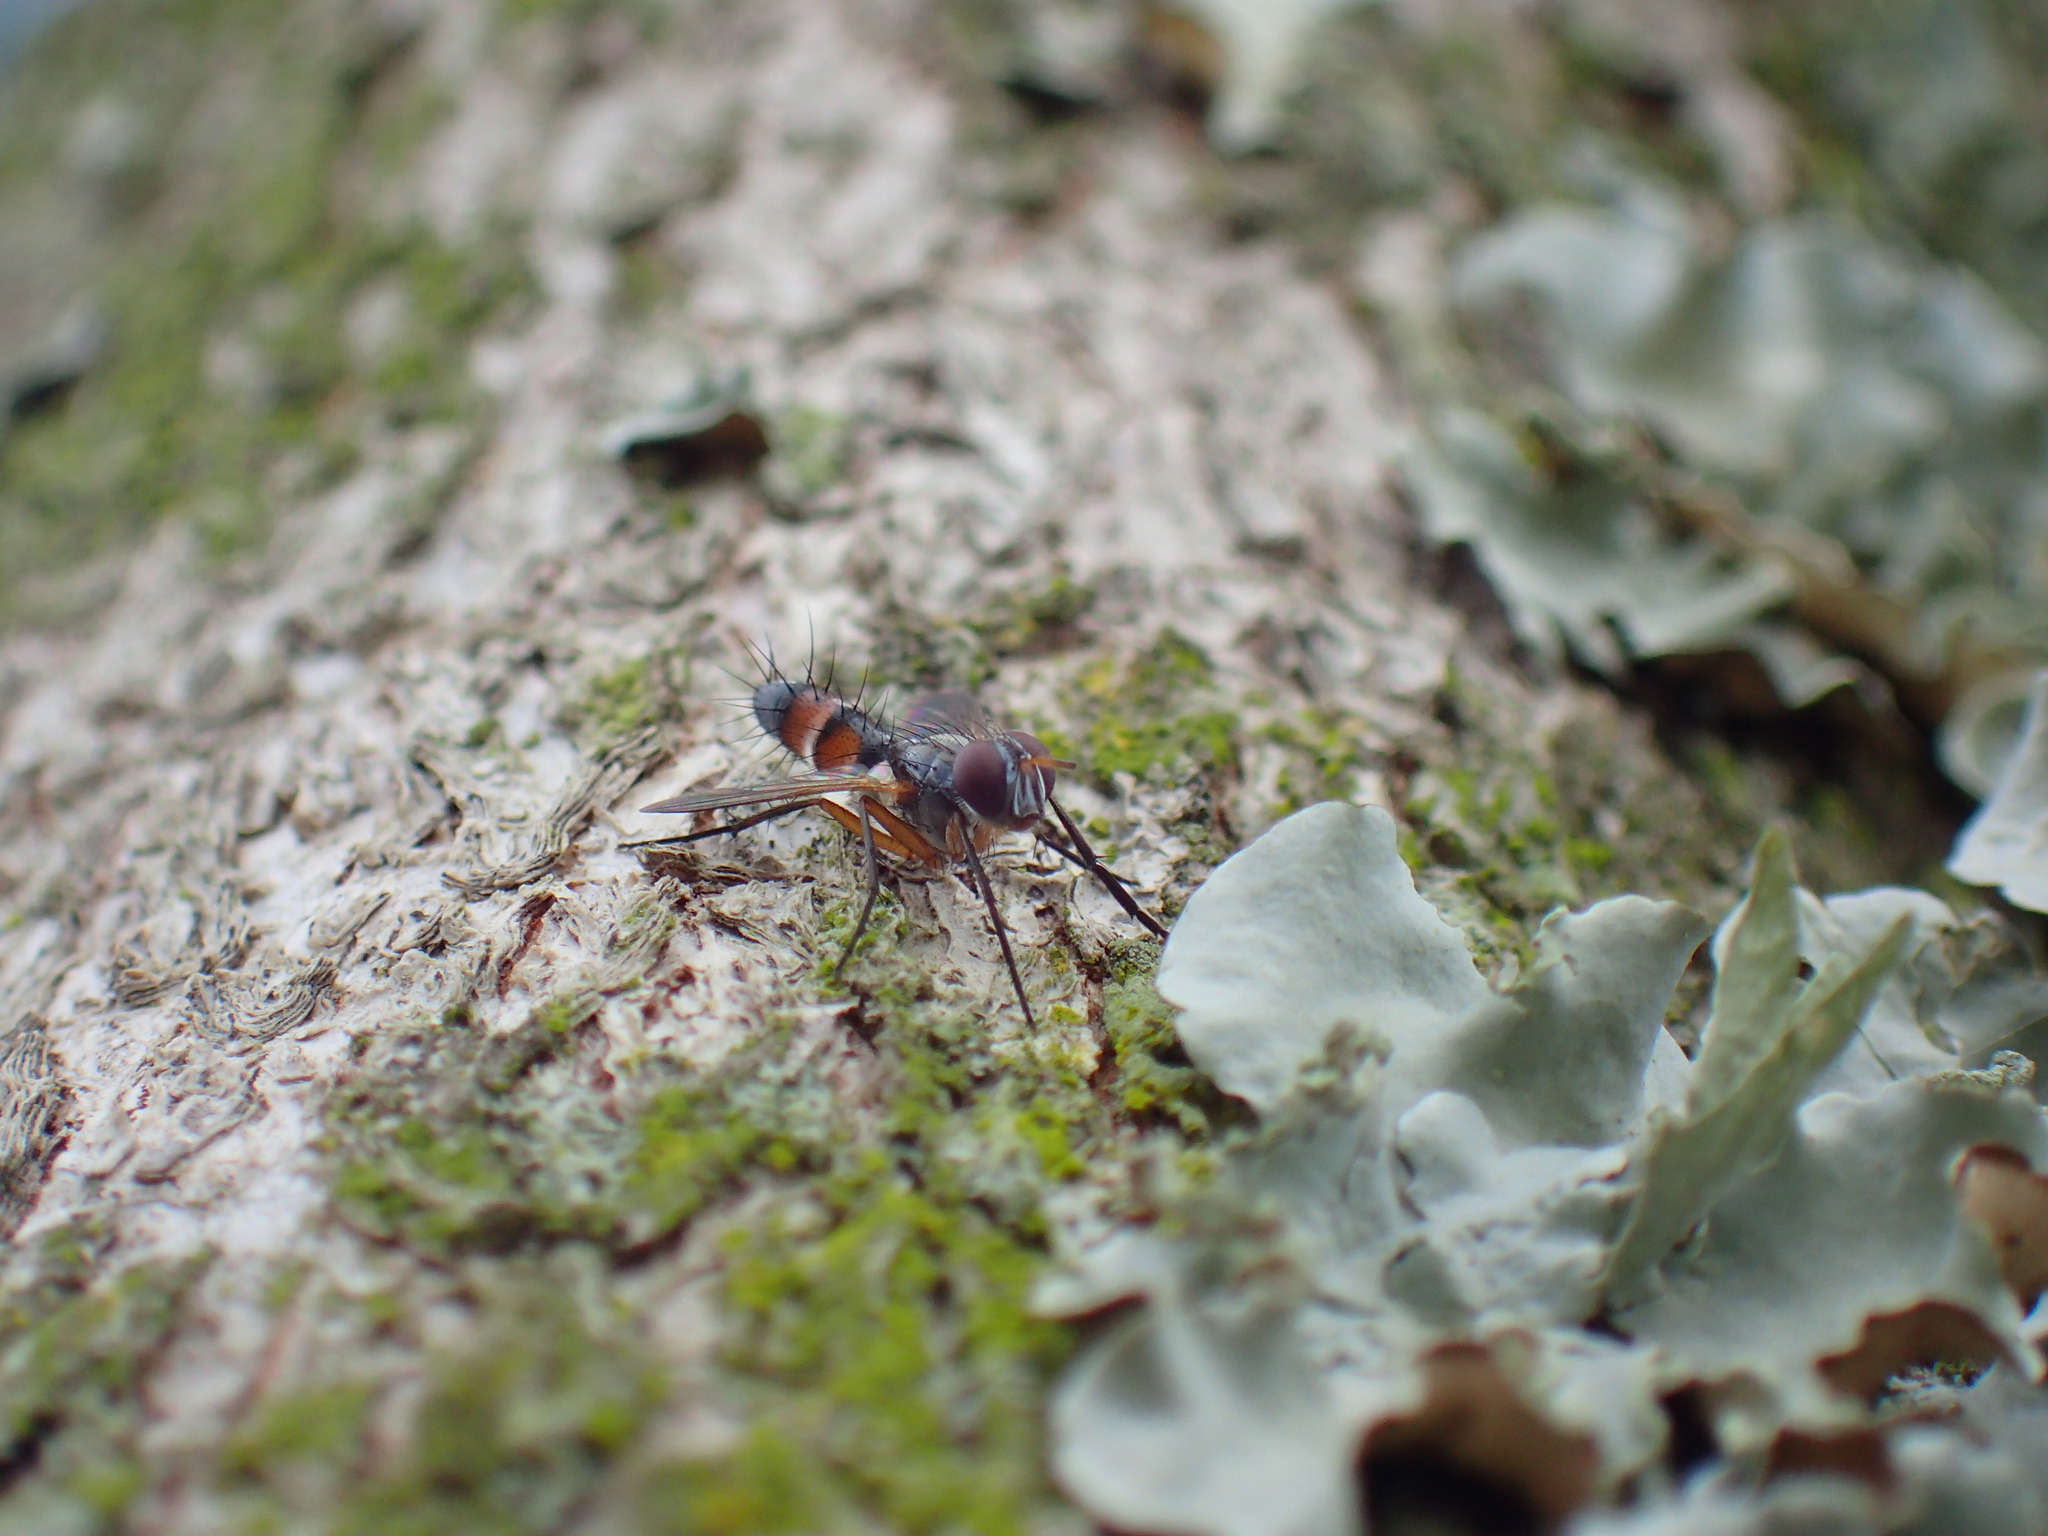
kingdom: Animalia
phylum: Arthropoda
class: Insecta
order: Diptera
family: Tachinidae
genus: Mintho
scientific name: Mintho flavicoxa
